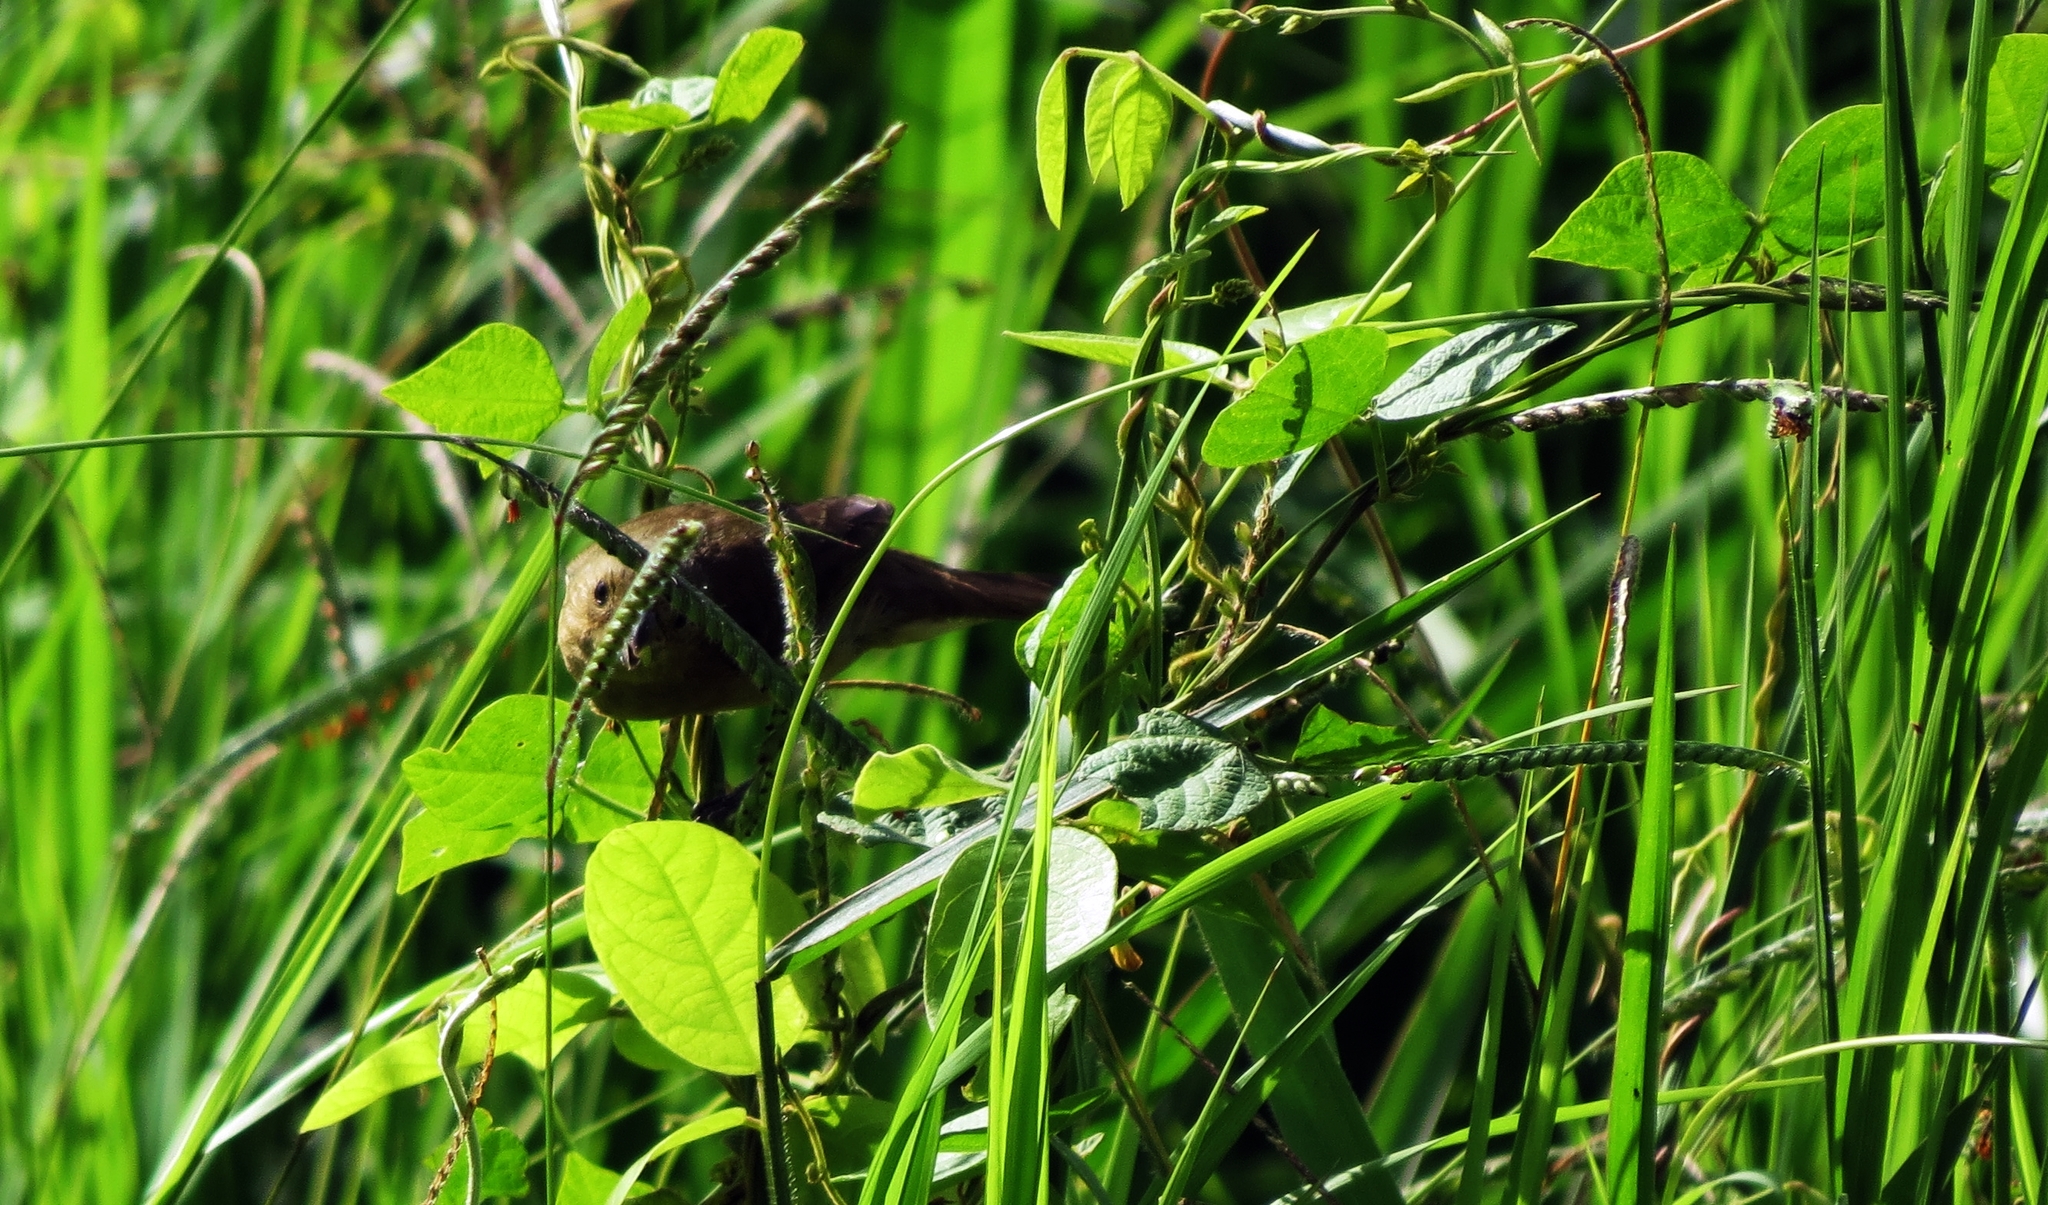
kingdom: Animalia
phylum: Chordata
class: Aves
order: Passeriformes
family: Thraupidae
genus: Sporophila
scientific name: Sporophila minuta
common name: Ruddy-breasted seedeater
